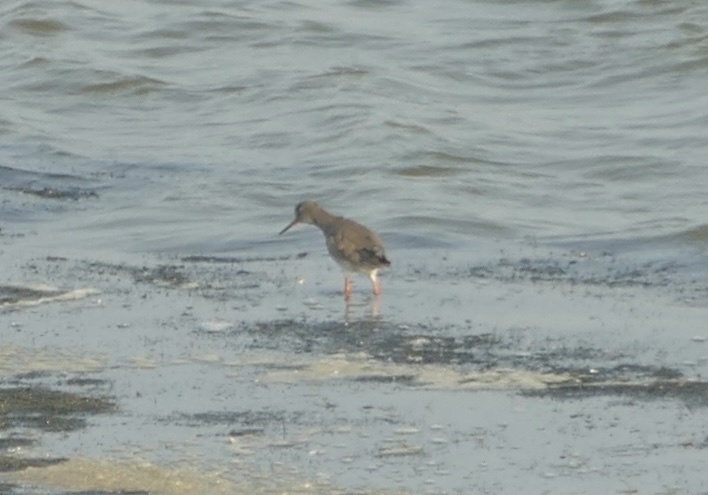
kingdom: Animalia
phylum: Chordata
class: Aves
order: Charadriiformes
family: Scolopacidae
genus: Tringa
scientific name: Tringa totanus
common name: Common redshank
